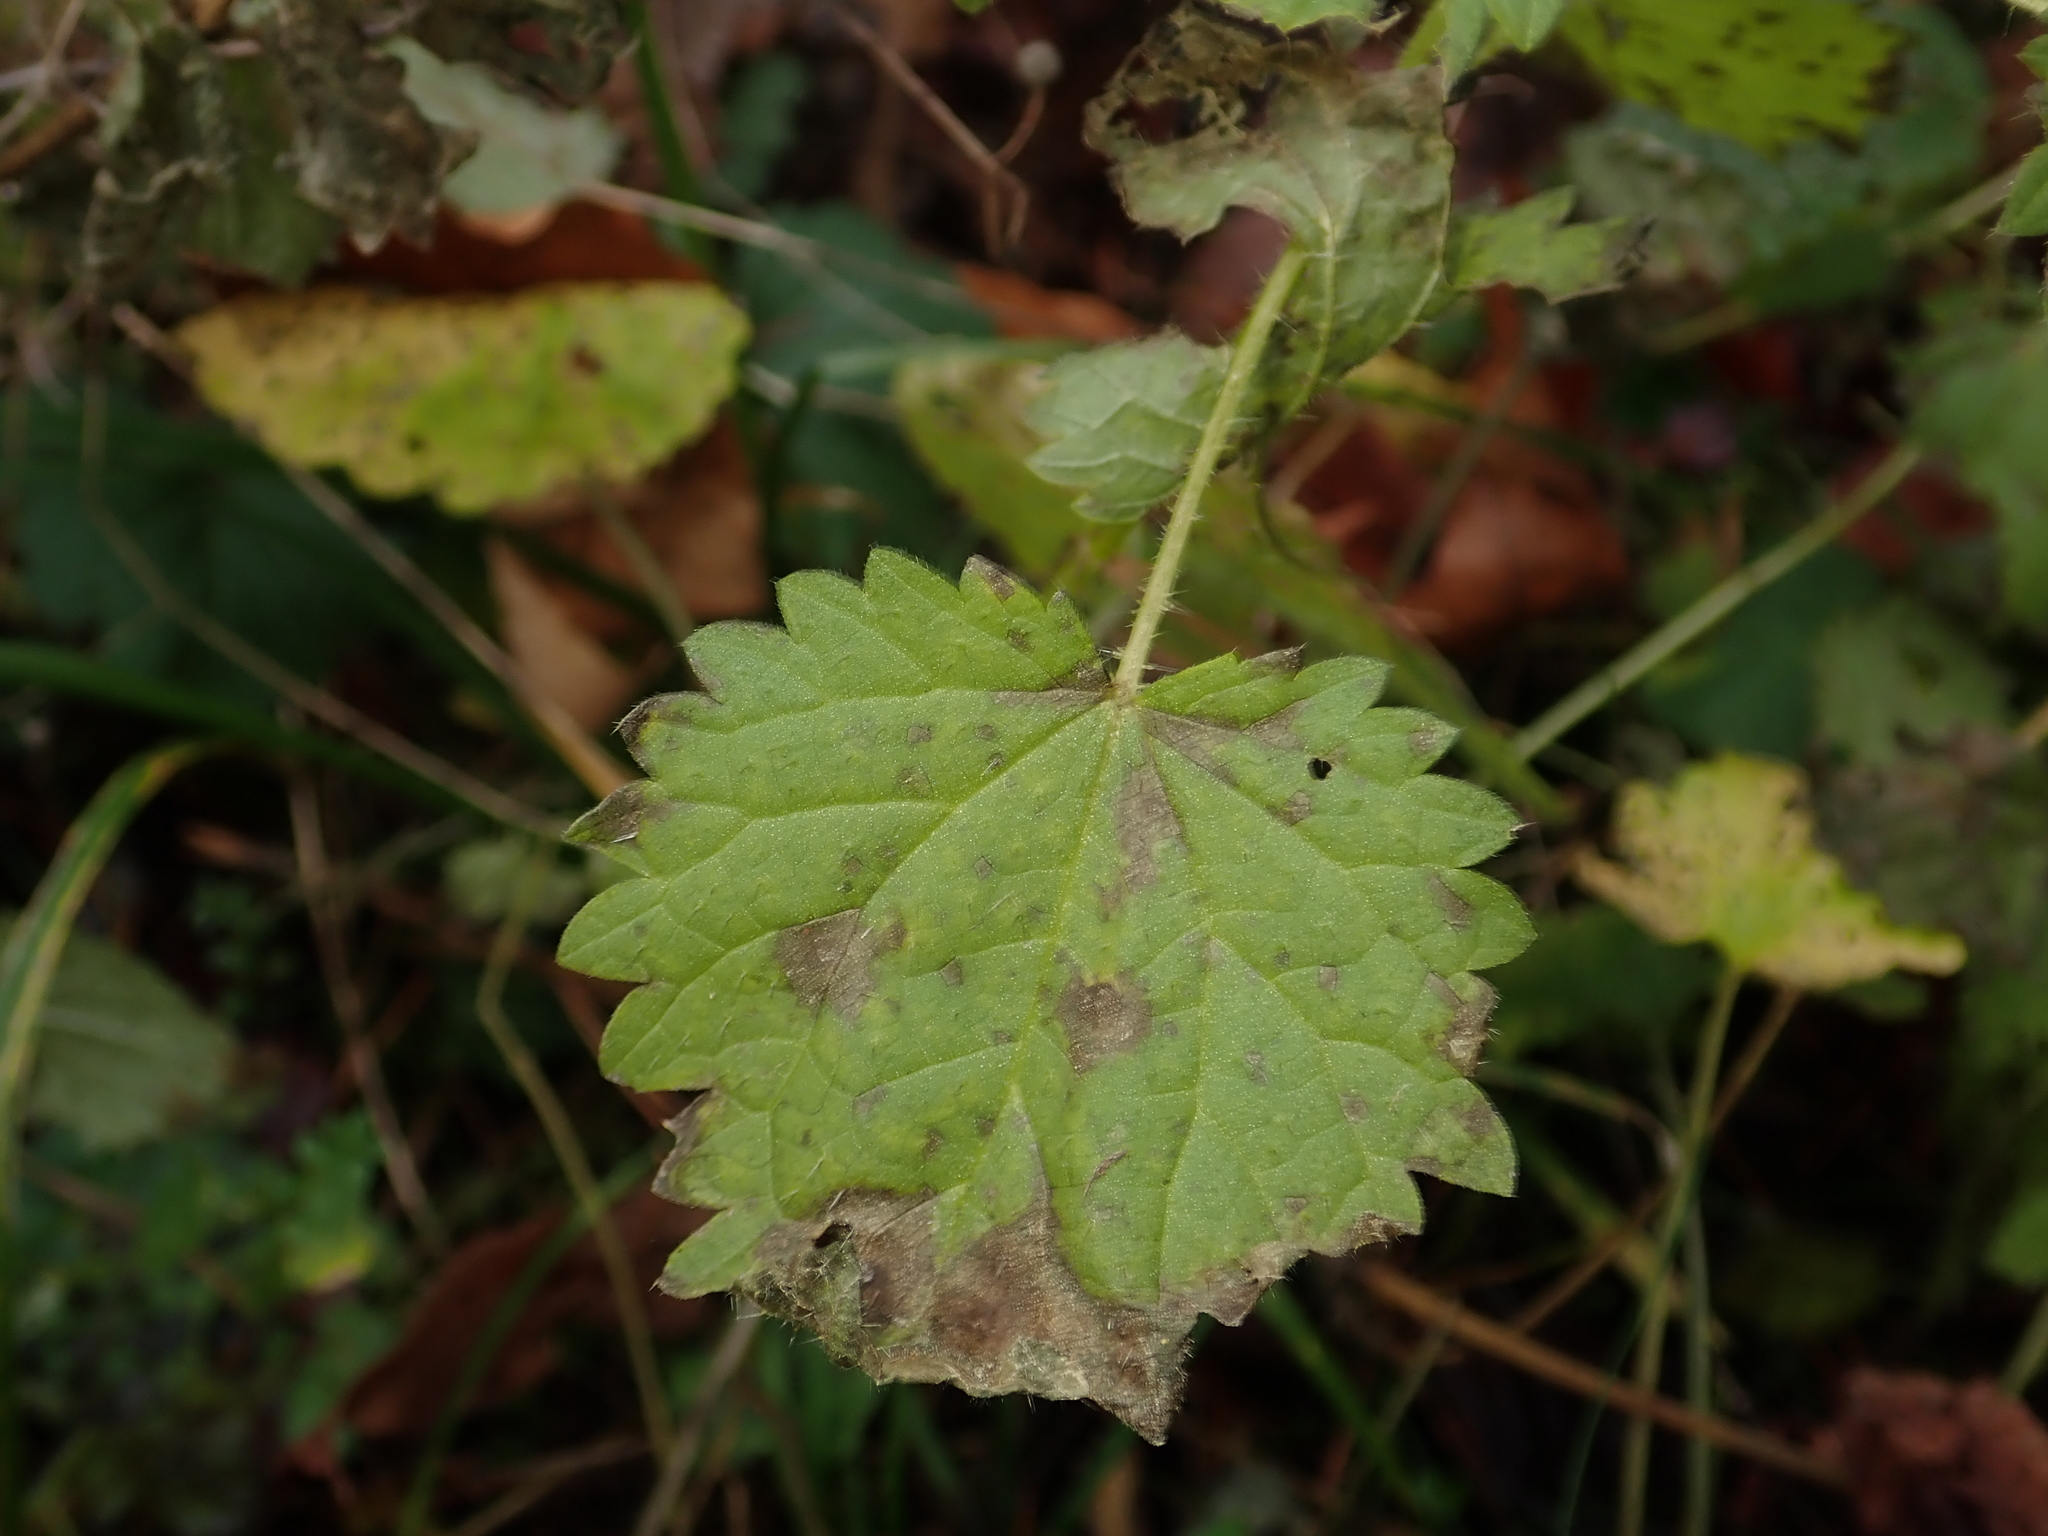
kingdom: Plantae
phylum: Tracheophyta
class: Magnoliopsida
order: Rosales
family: Urticaceae
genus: Urtica
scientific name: Urtica dioica
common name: Common nettle
